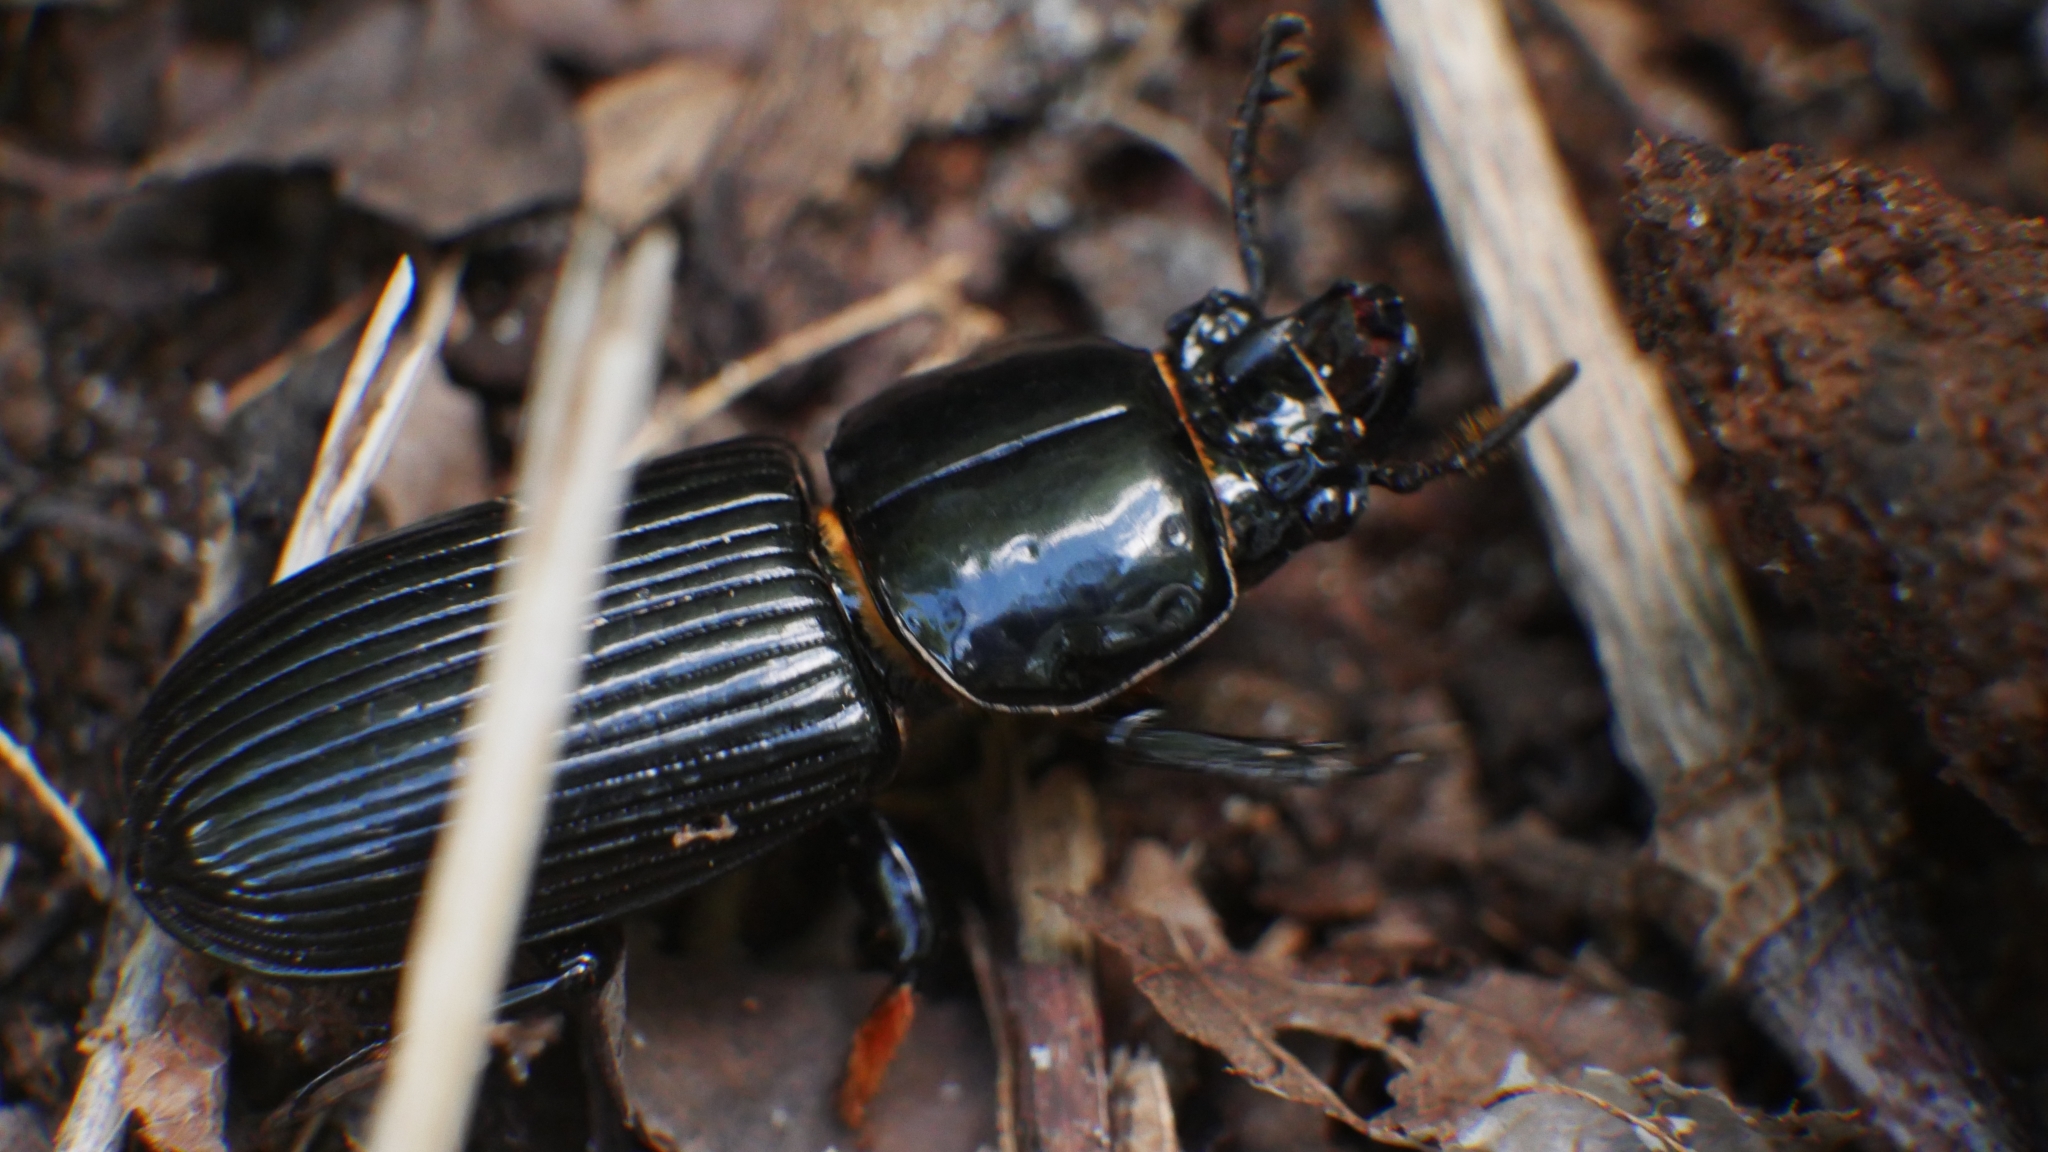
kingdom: Animalia
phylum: Arthropoda
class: Insecta
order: Coleoptera
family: Passalidae
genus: Odontotaenius
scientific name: Odontotaenius disjunctus
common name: Patent leather beetle
